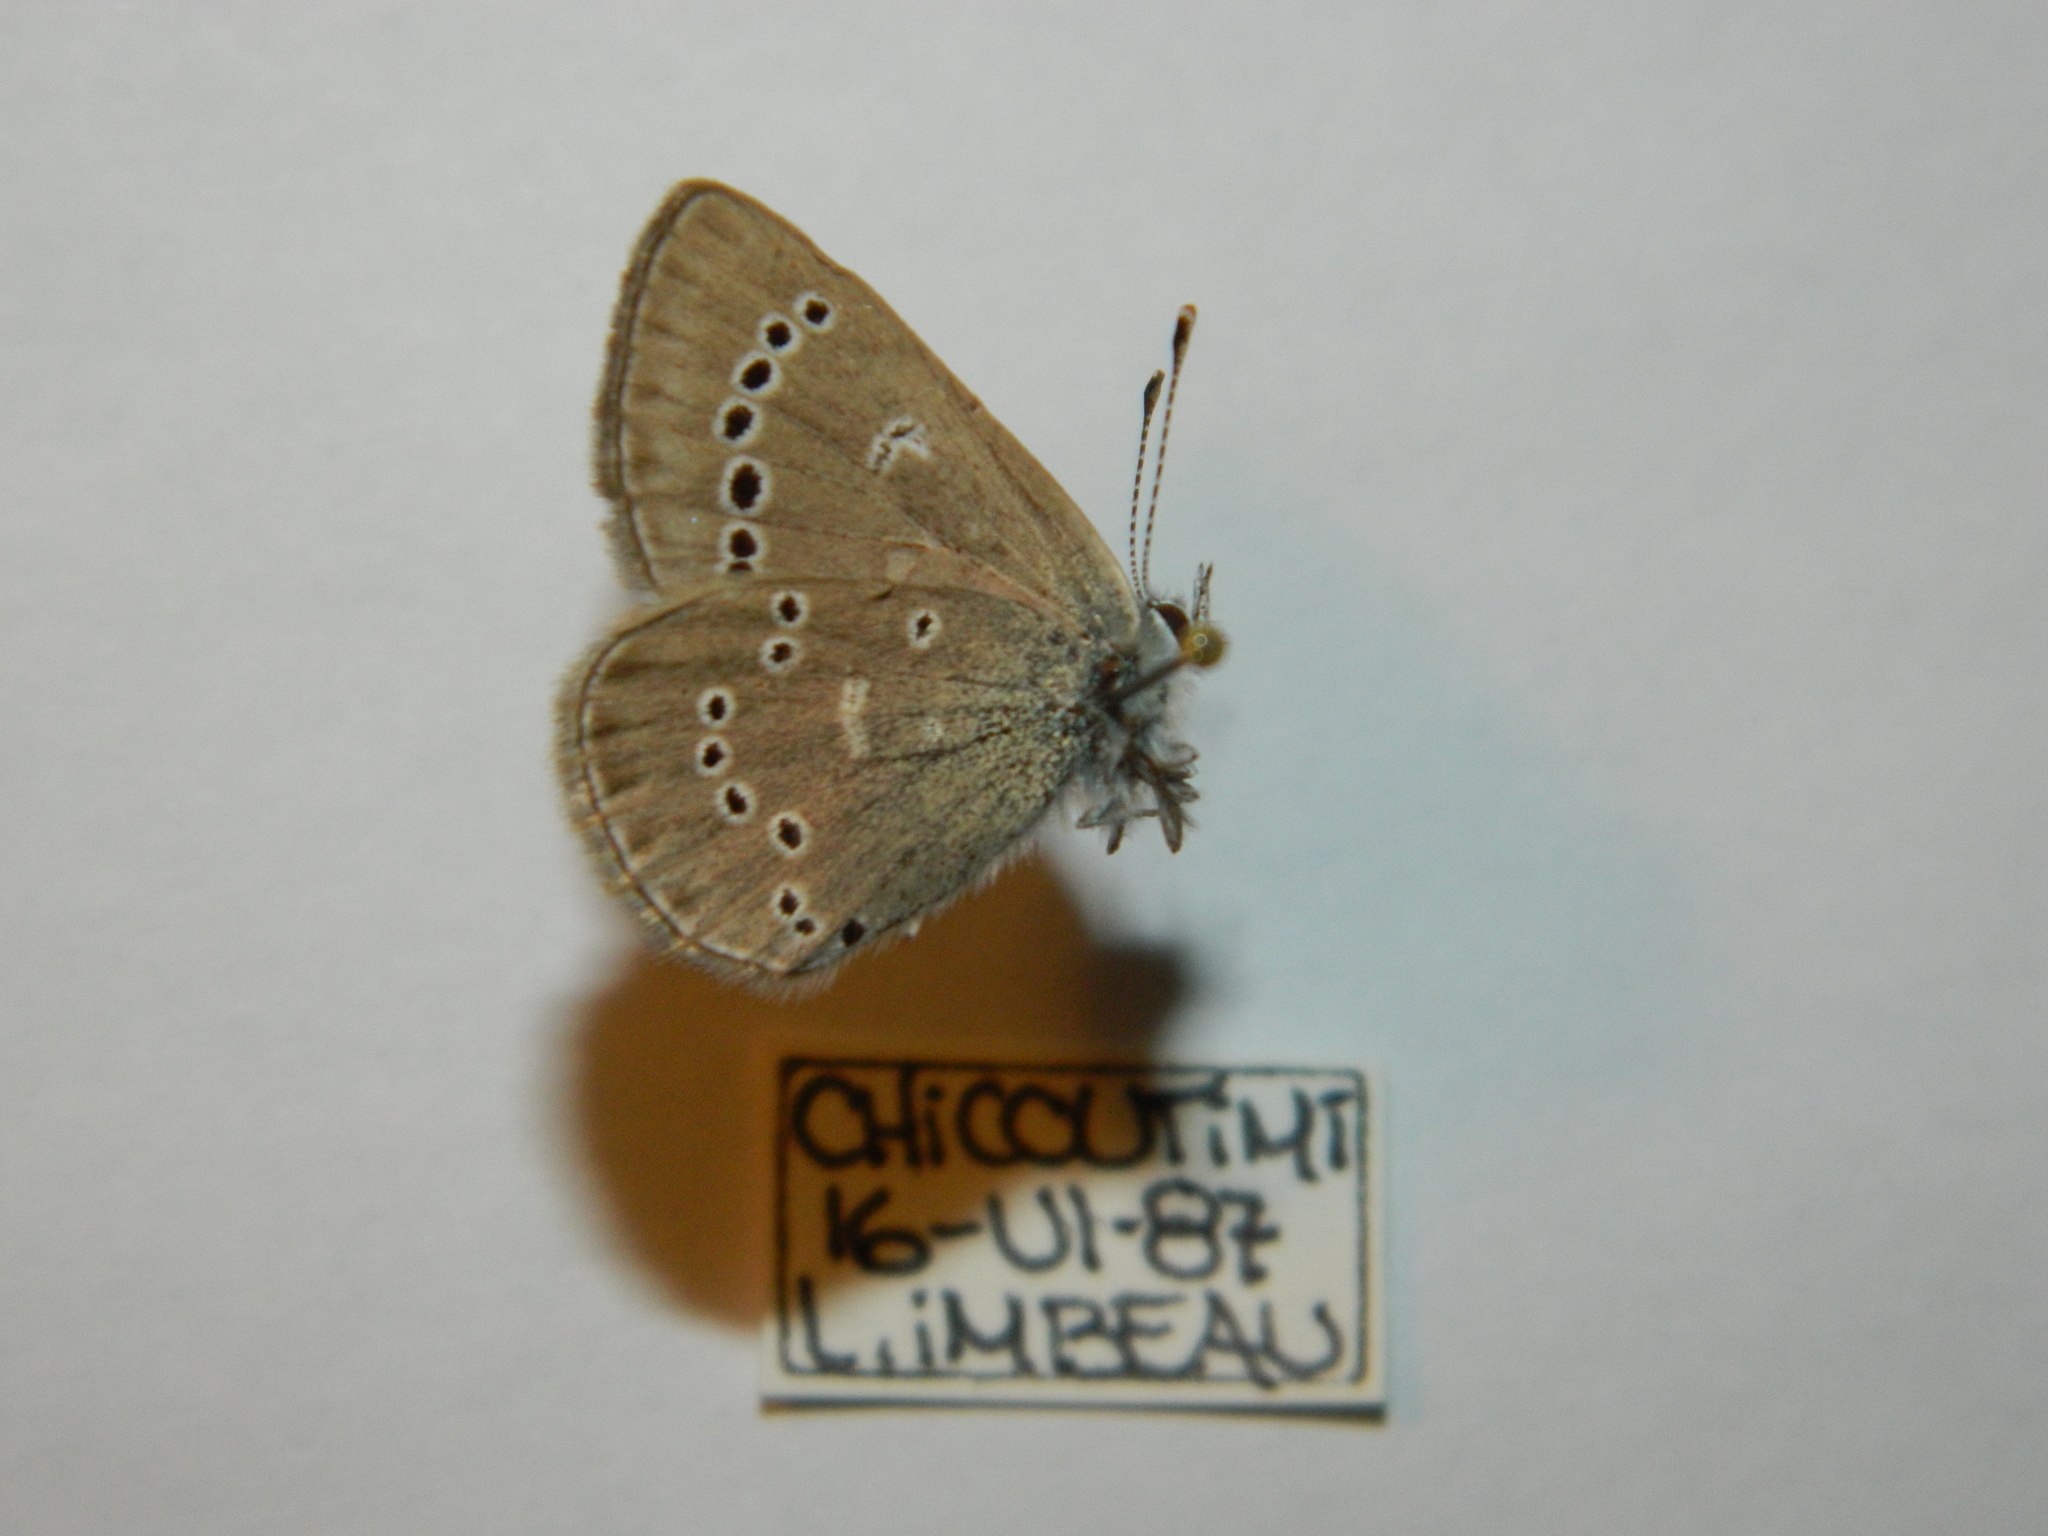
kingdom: Animalia
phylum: Arthropoda
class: Insecta
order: Lepidoptera
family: Lycaenidae
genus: Glaucopsyche
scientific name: Glaucopsyche lygdamus
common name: Silvery blue
